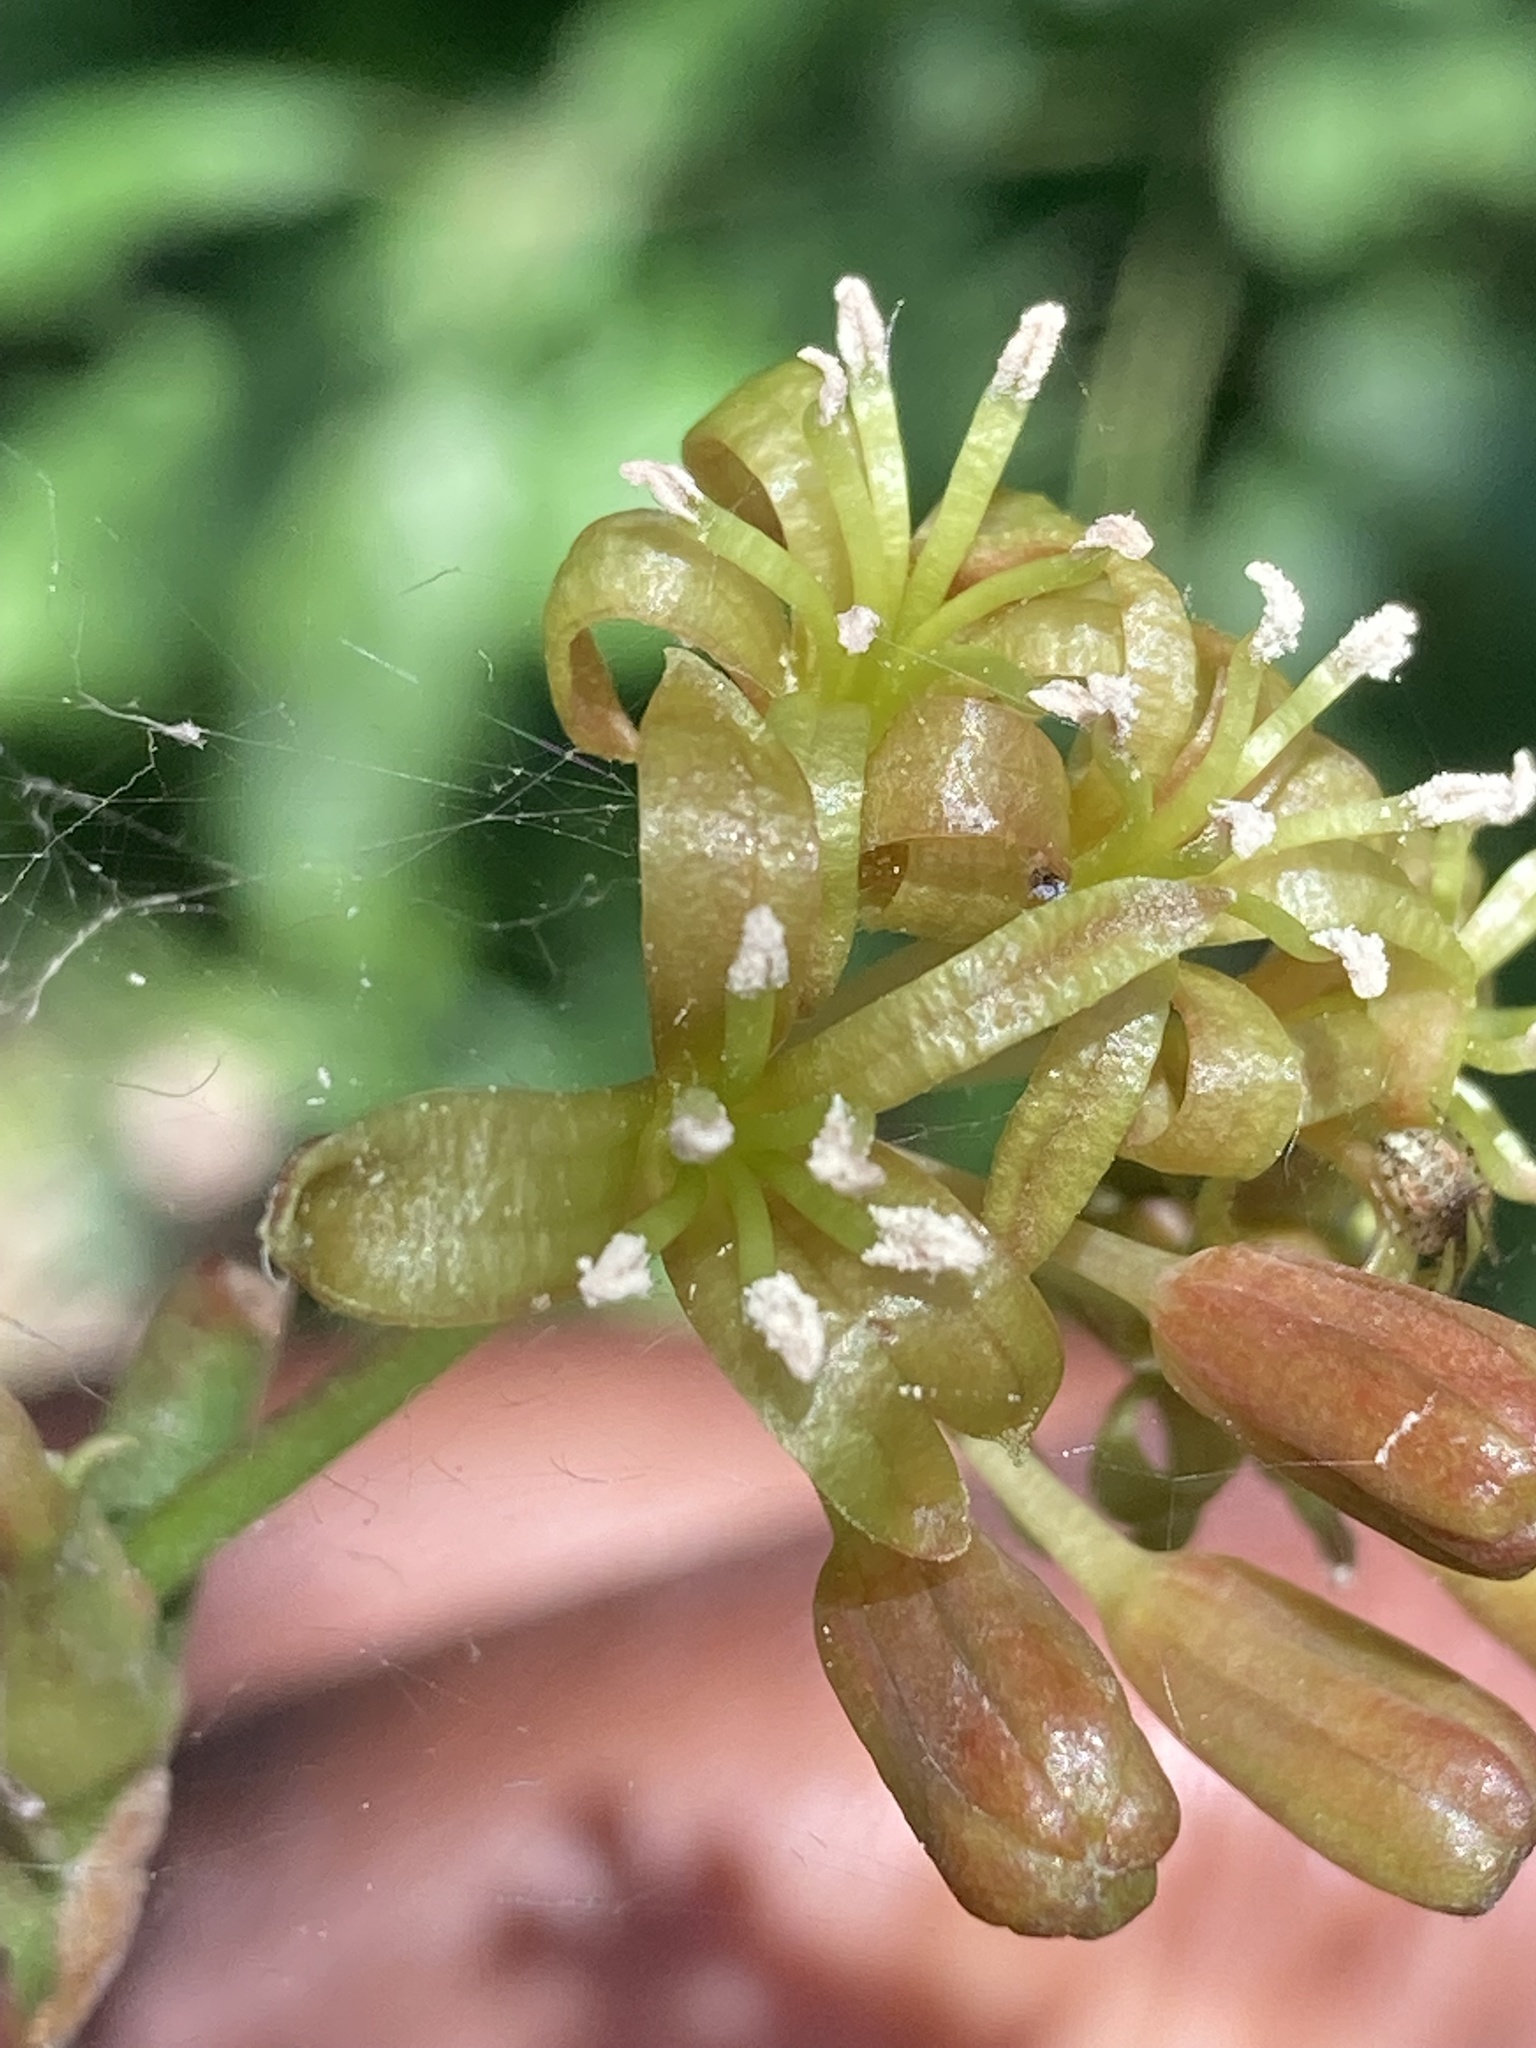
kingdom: Plantae
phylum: Tracheophyta
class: Liliopsida
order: Liliales
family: Smilacaceae
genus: Smilax
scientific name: Smilax aspera
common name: Common smilax
